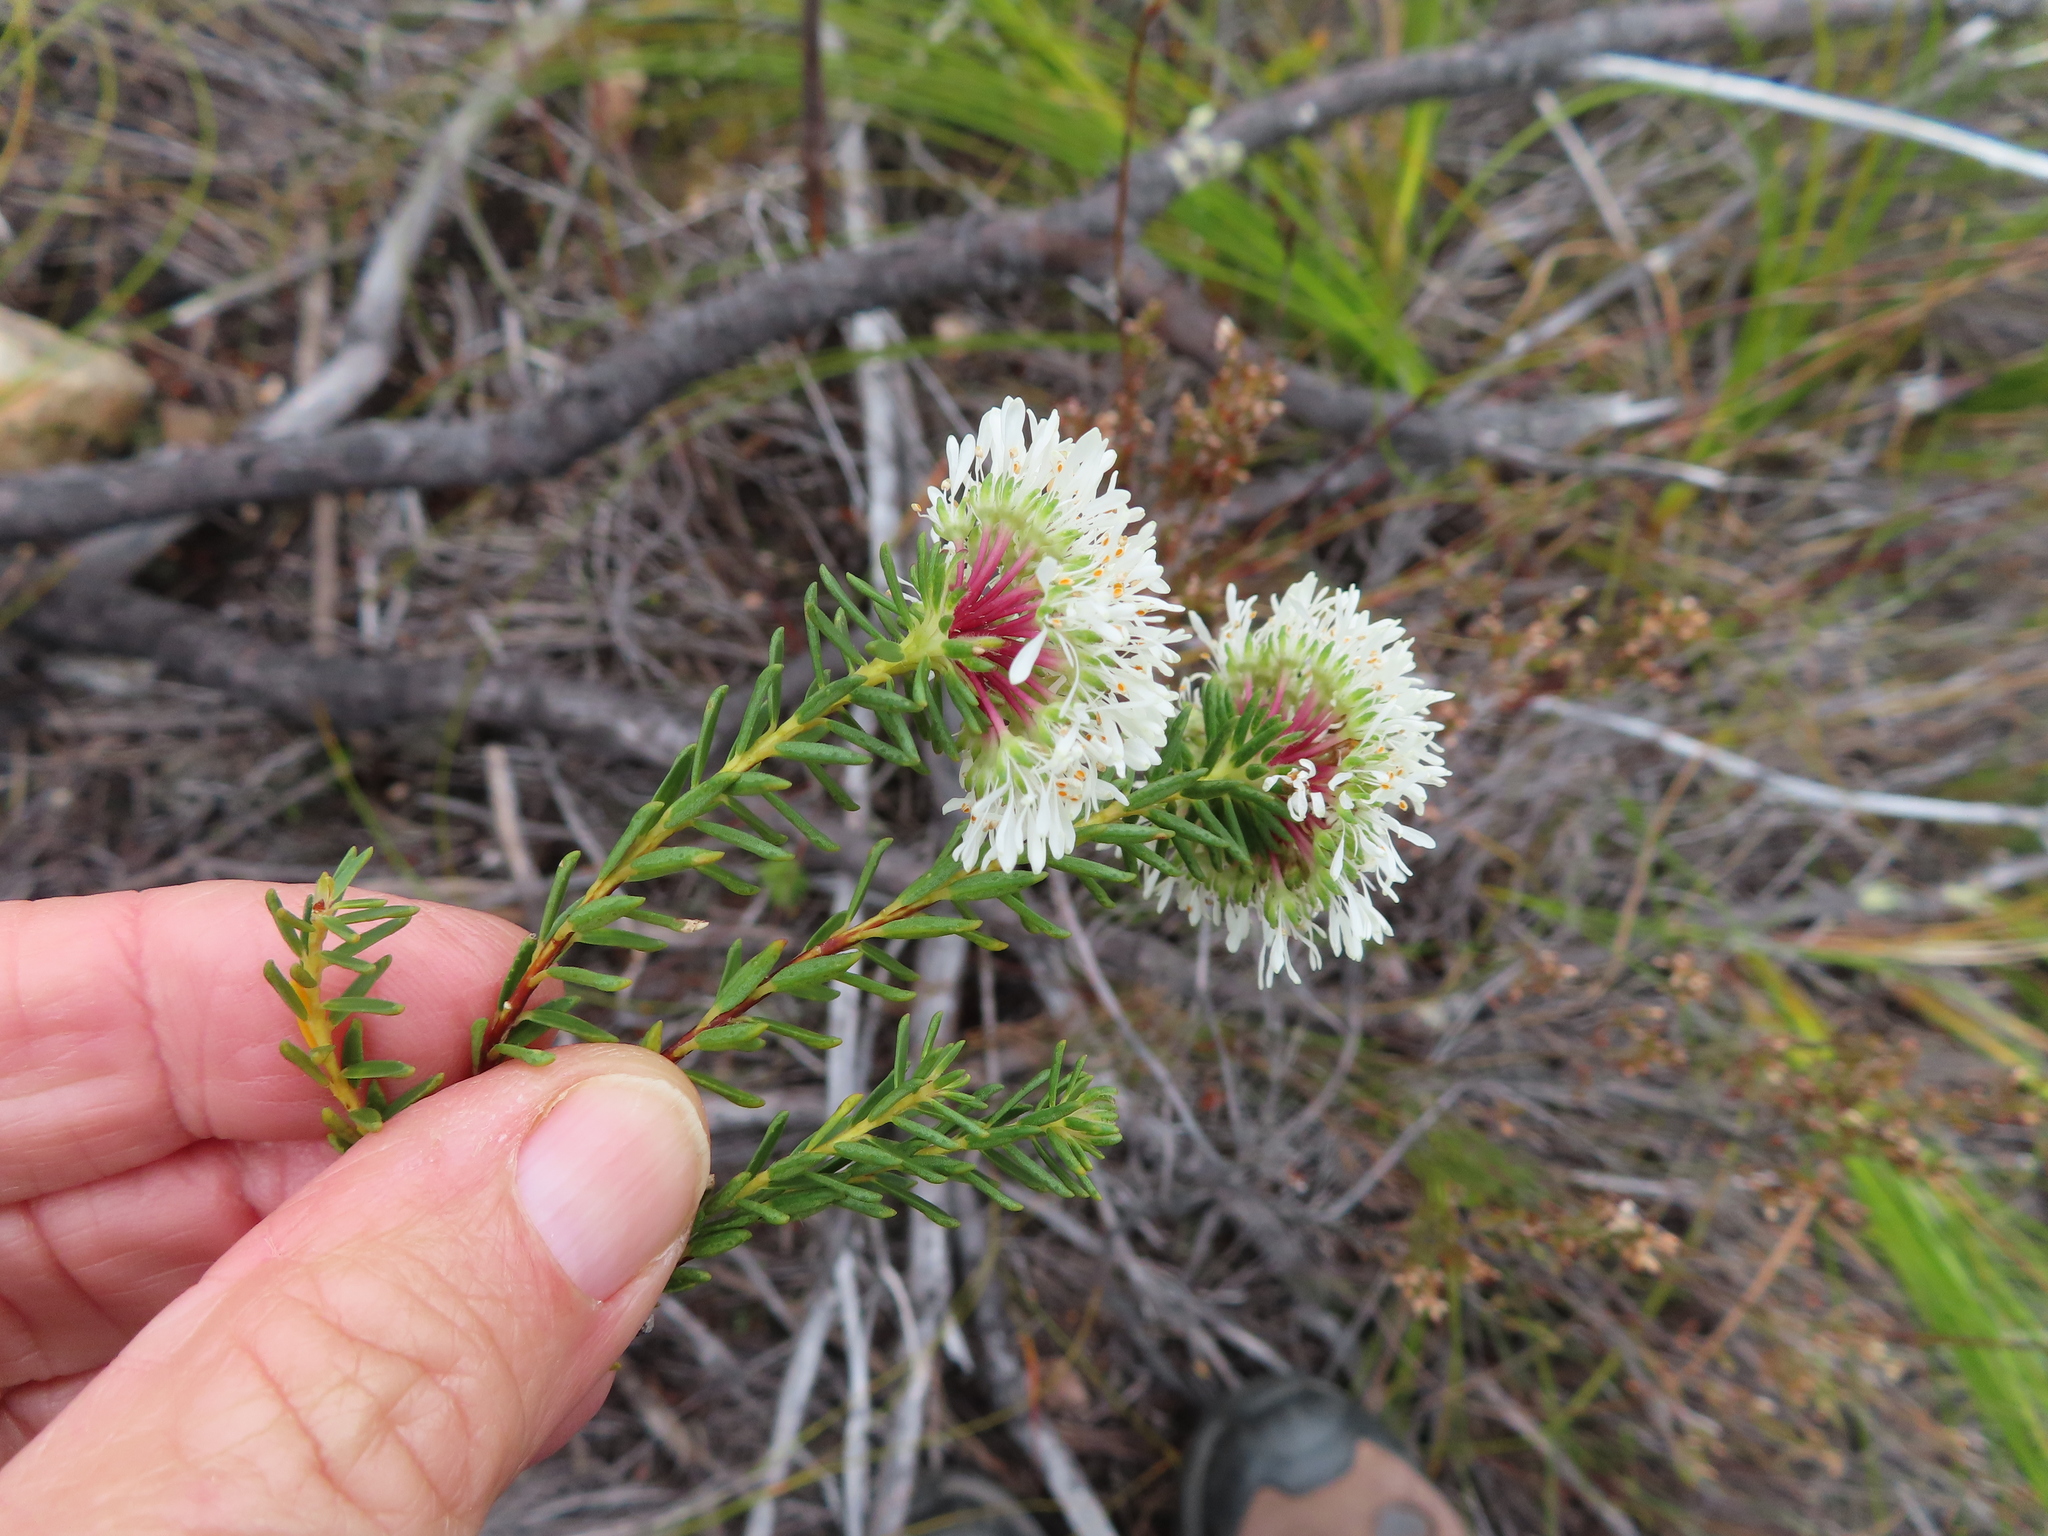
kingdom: Plantae
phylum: Tracheophyta
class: Magnoliopsida
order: Sapindales
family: Rutaceae
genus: Agathosma
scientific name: Agathosma bifida
